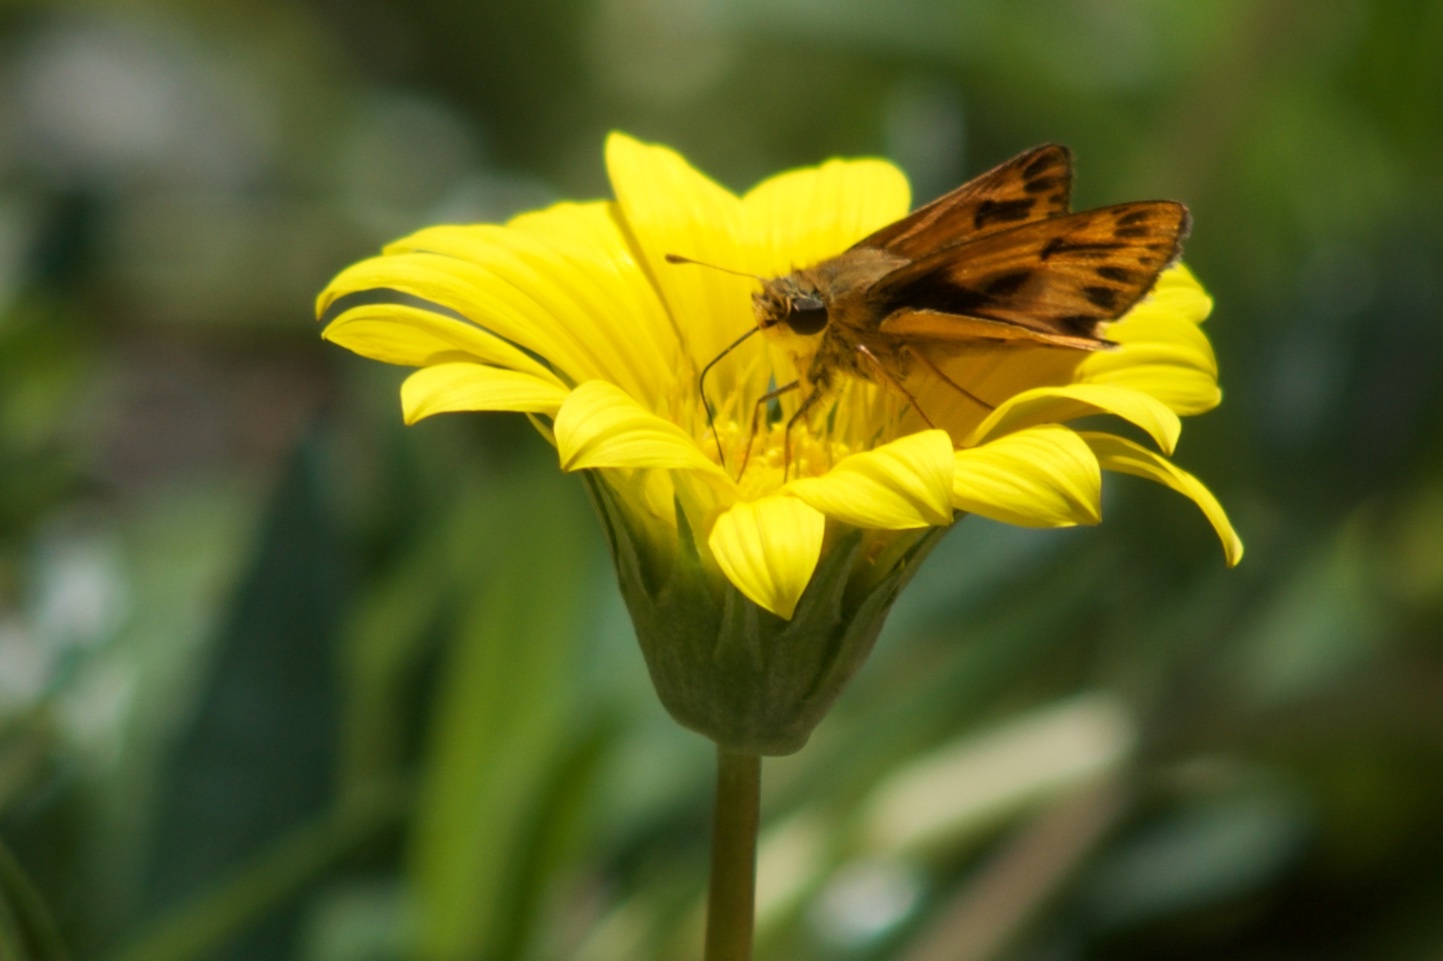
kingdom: Animalia
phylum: Arthropoda
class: Insecta
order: Lepidoptera
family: Hesperiidae
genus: Hylephila
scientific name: Hylephila phyleus
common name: Fiery skipper
